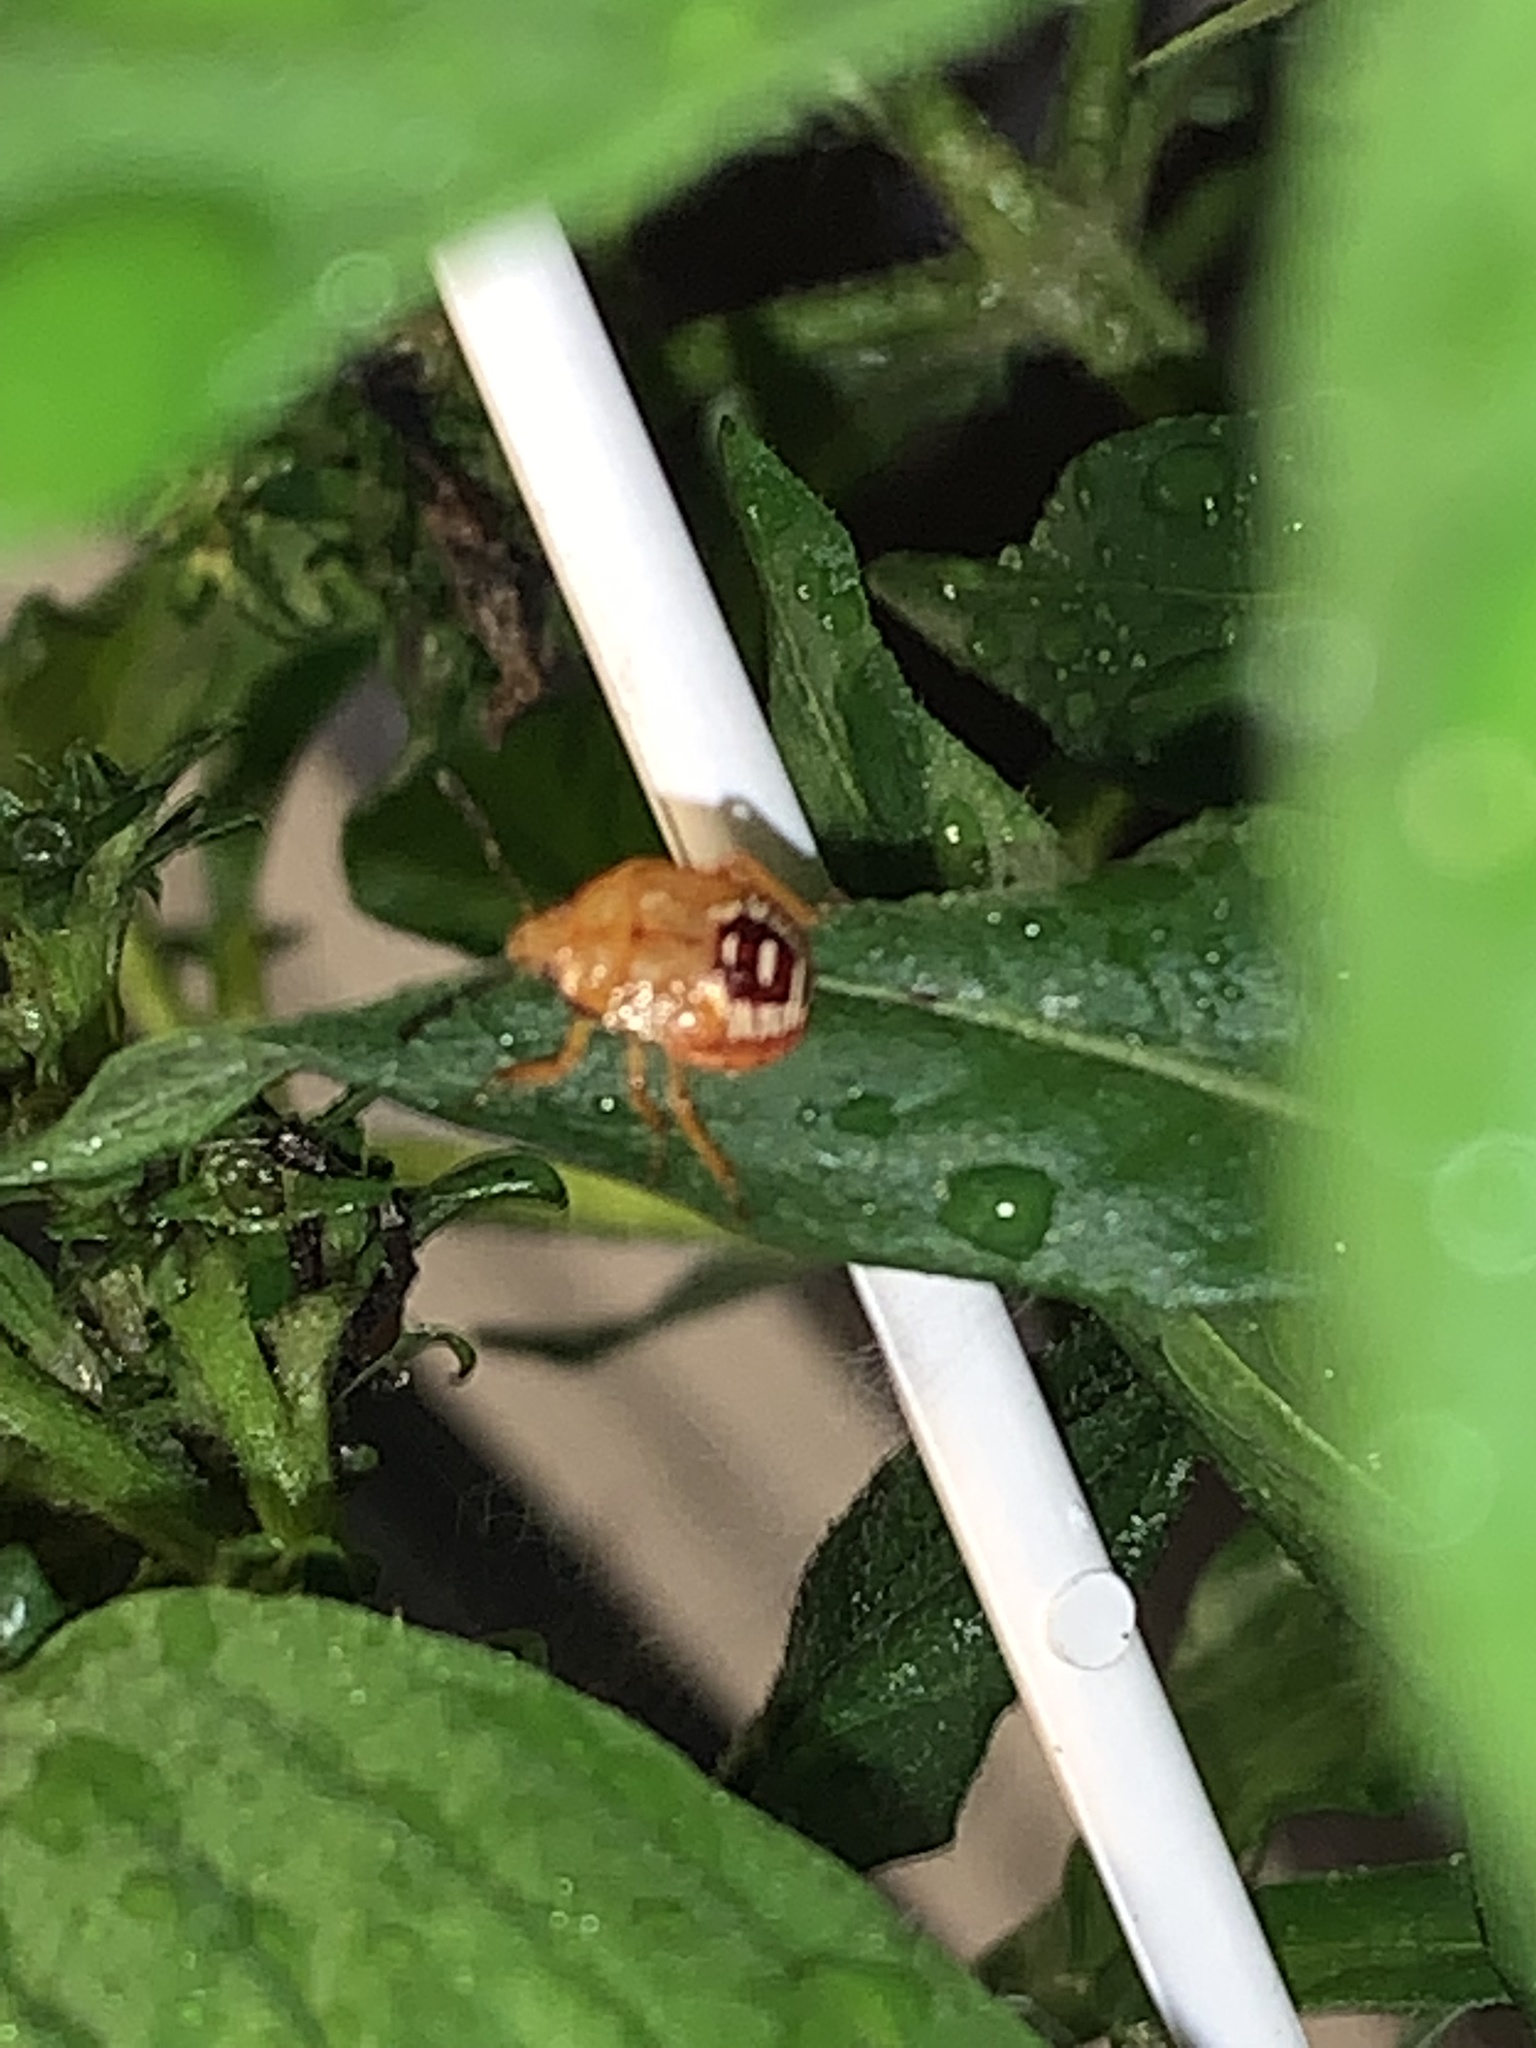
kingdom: Animalia
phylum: Arthropoda
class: Insecta
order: Hemiptera
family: Pentatomidae
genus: Podisus
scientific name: Podisus
